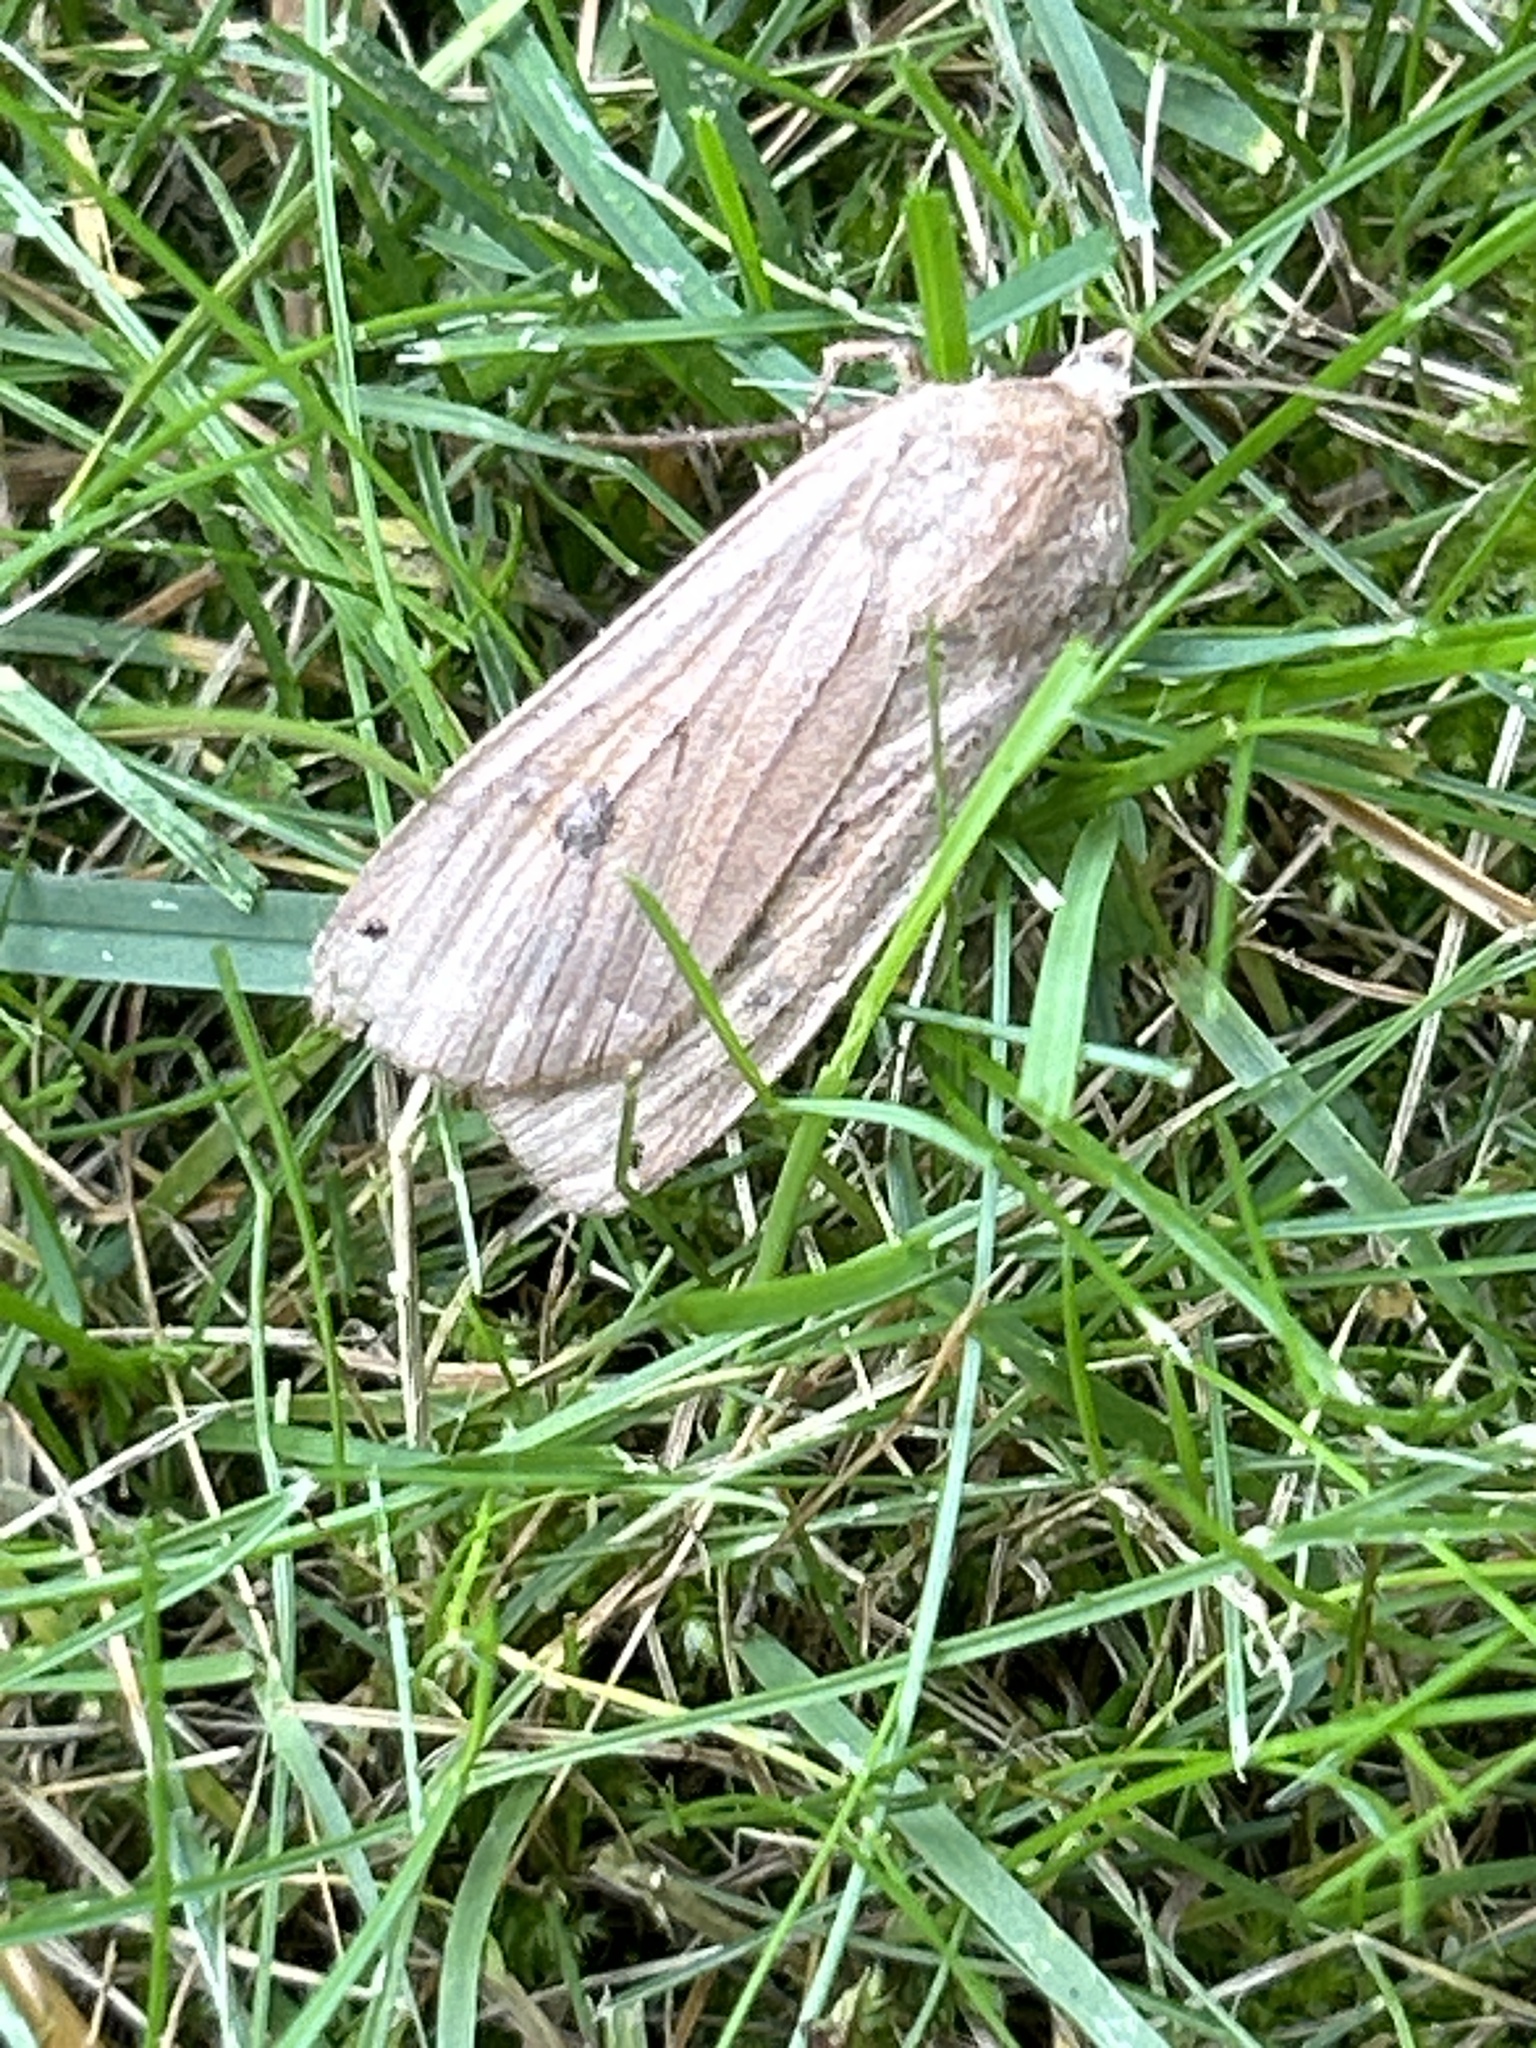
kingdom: Animalia
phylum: Arthropoda
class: Insecta
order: Lepidoptera
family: Noctuidae
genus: Noctua
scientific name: Noctua pronuba
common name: Large yellow underwing
